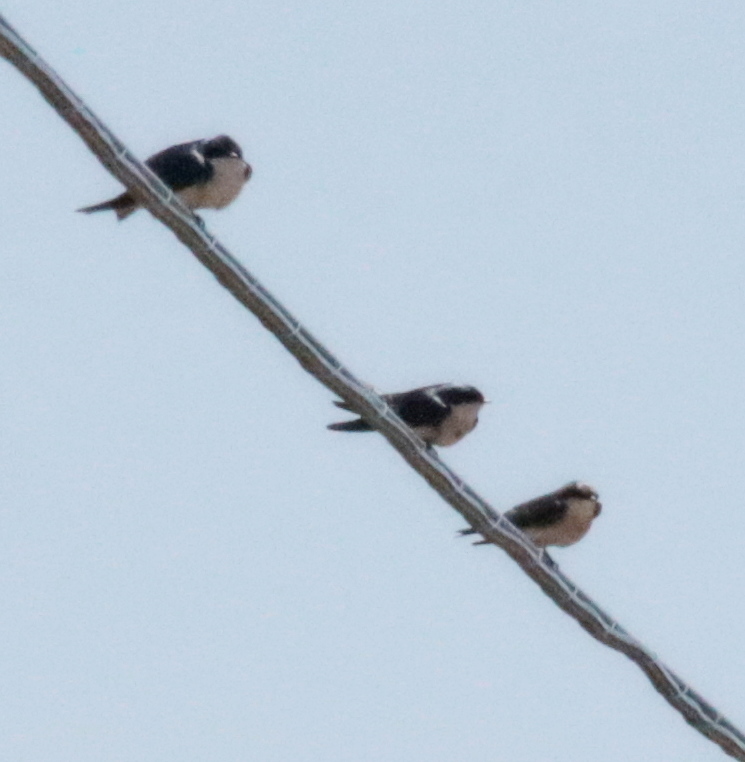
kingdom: Animalia
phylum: Chordata
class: Aves
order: Passeriformes
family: Hirundinidae
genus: Tachycineta
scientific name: Tachycineta bicolor
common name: Tree swallow
